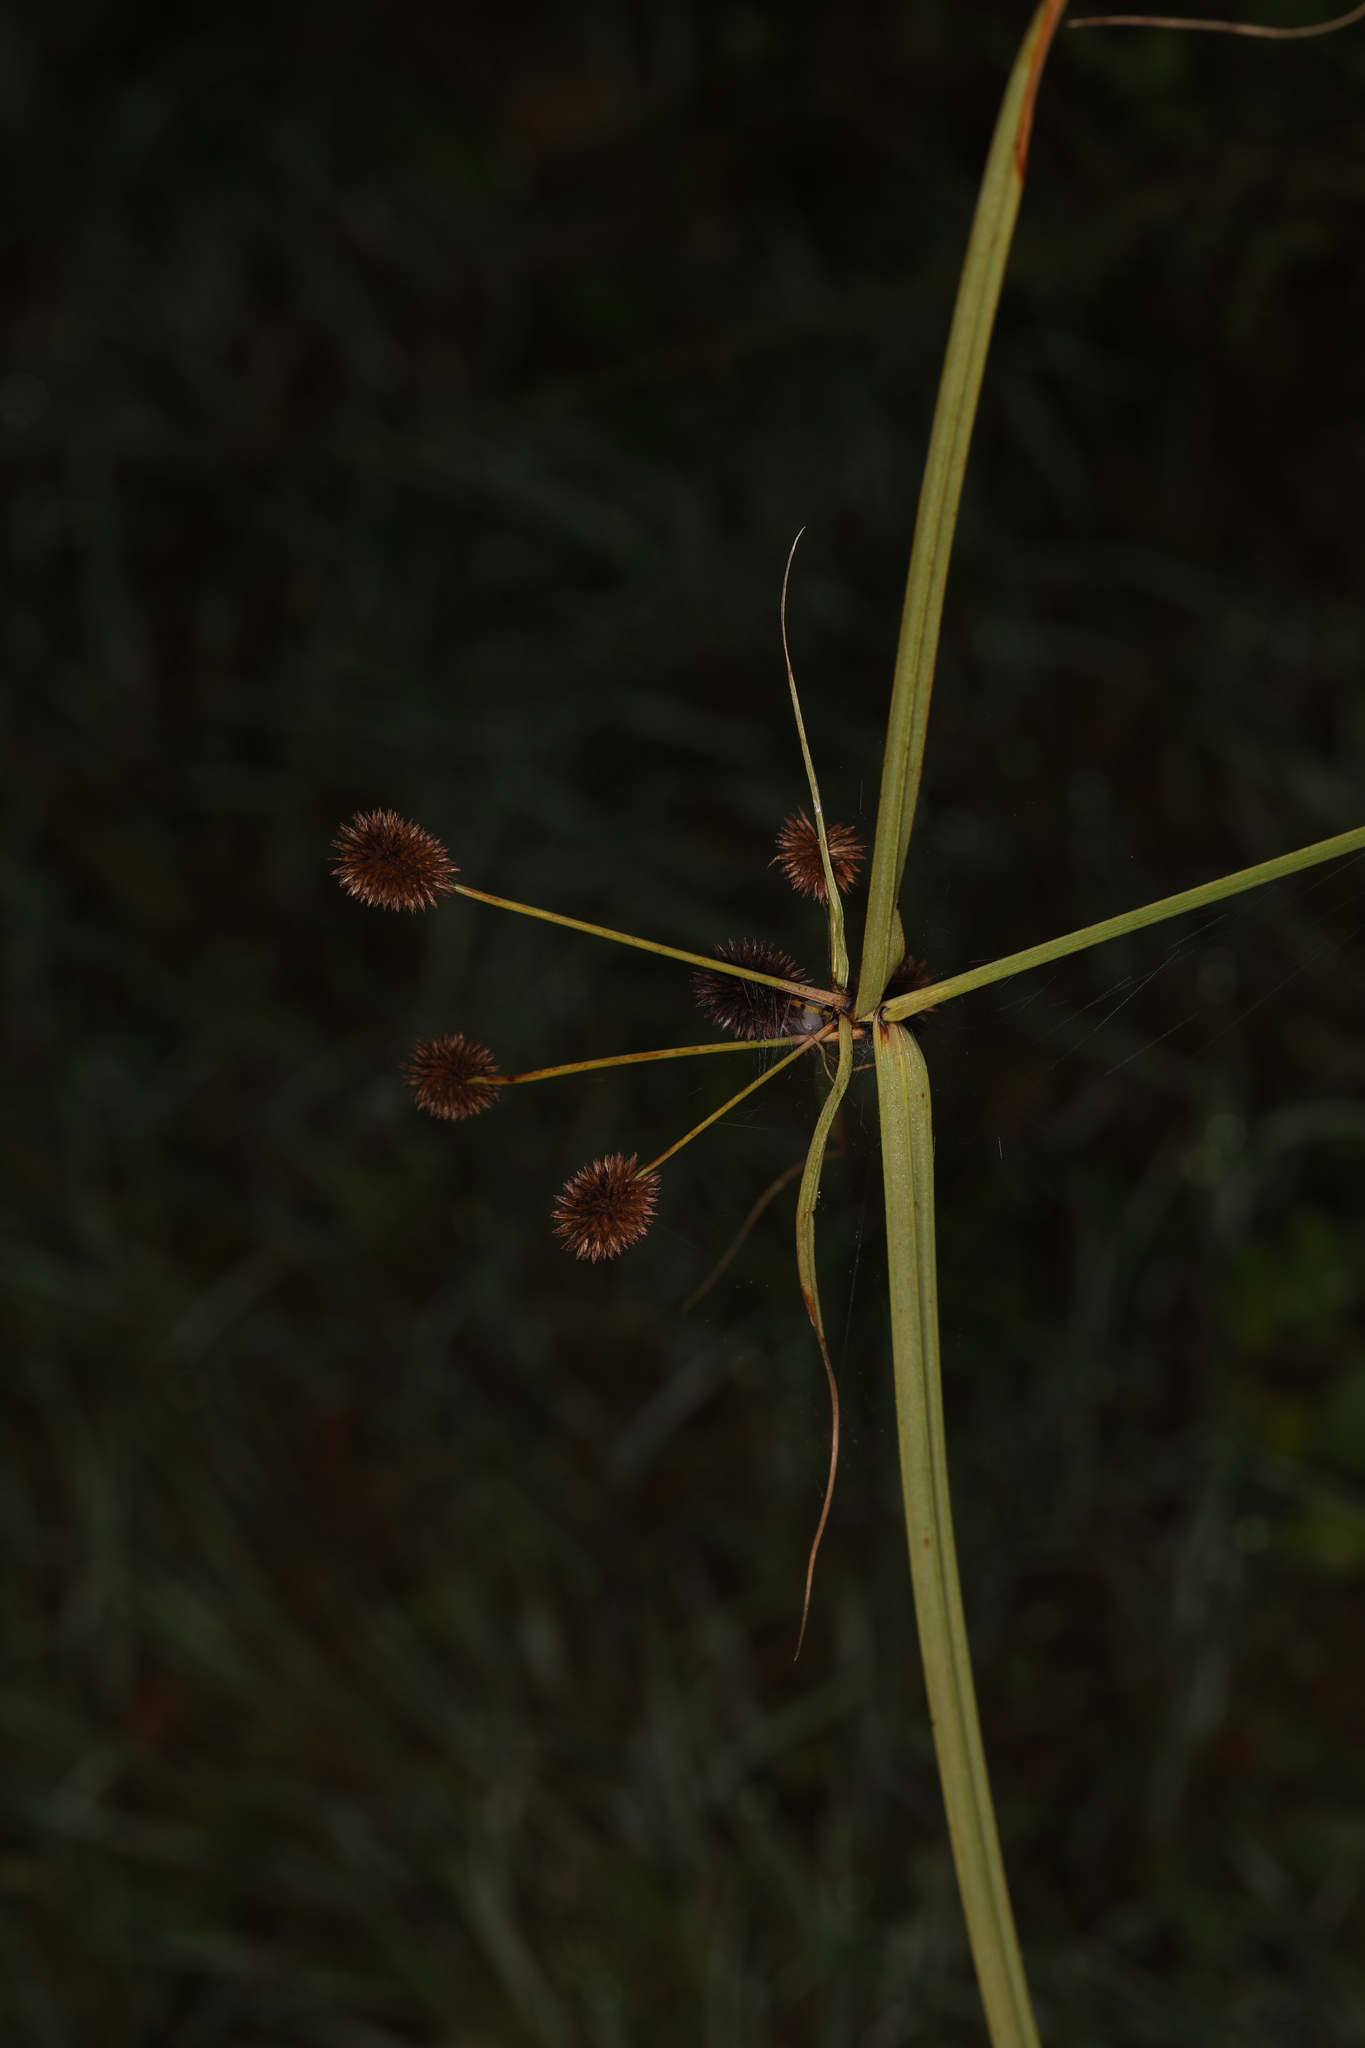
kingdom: Plantae
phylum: Tracheophyta
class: Liliopsida
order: Poales
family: Cyperaceae
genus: Cyperus
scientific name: Cyperus echinatus
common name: Teasel sedge
